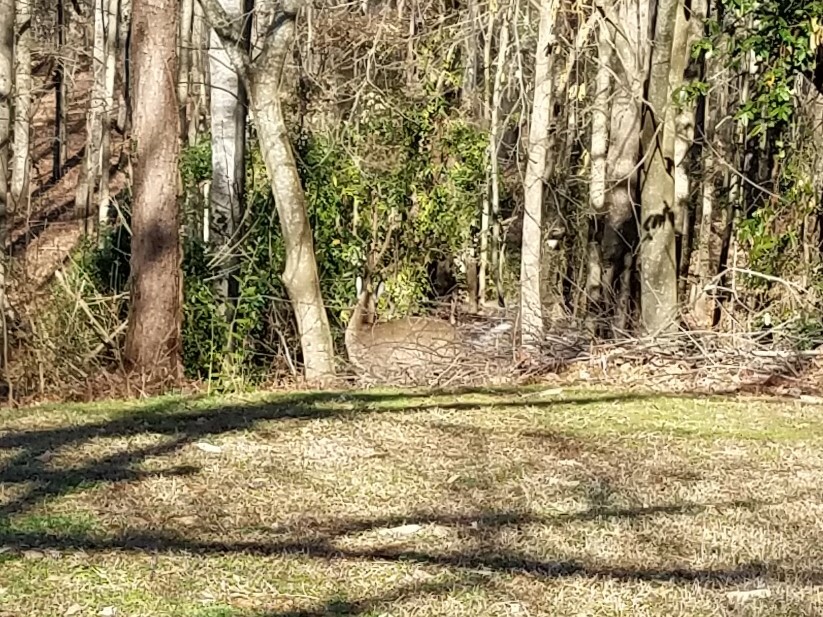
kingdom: Animalia
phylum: Chordata
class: Mammalia
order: Artiodactyla
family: Cervidae
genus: Odocoileus
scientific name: Odocoileus virginianus
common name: White-tailed deer
